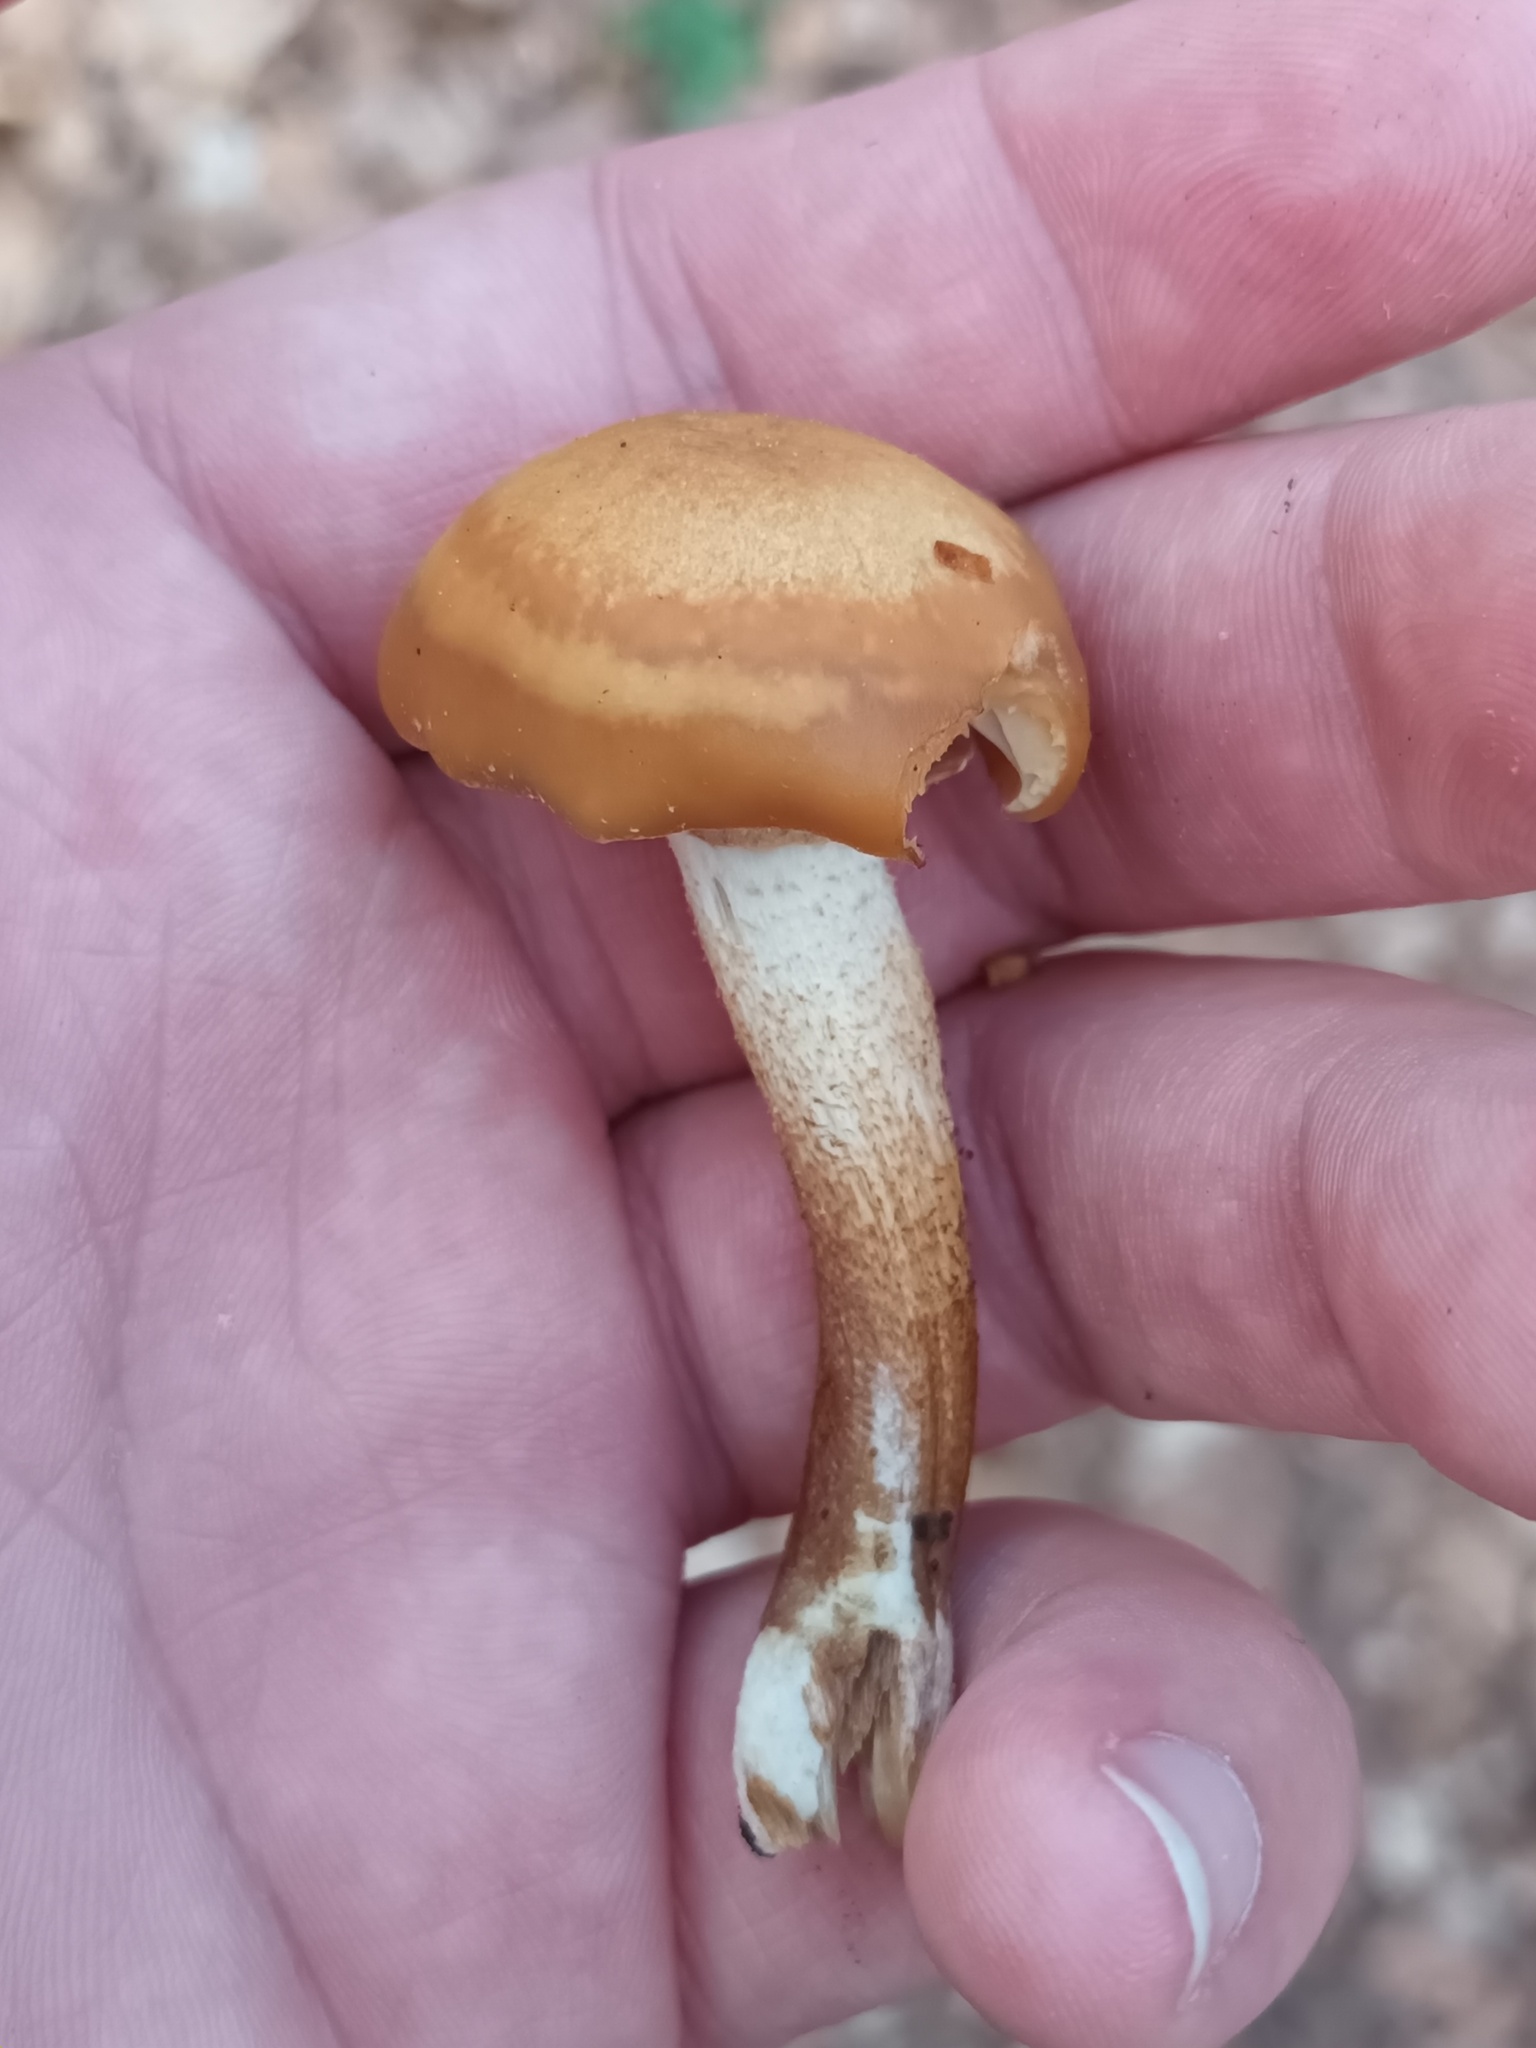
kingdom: Fungi
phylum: Basidiomycota
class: Agaricomycetes
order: Agaricales
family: Strophariaceae
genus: Kuehneromyces
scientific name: Kuehneromyces mutabilis
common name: Sheathed woodtuft
